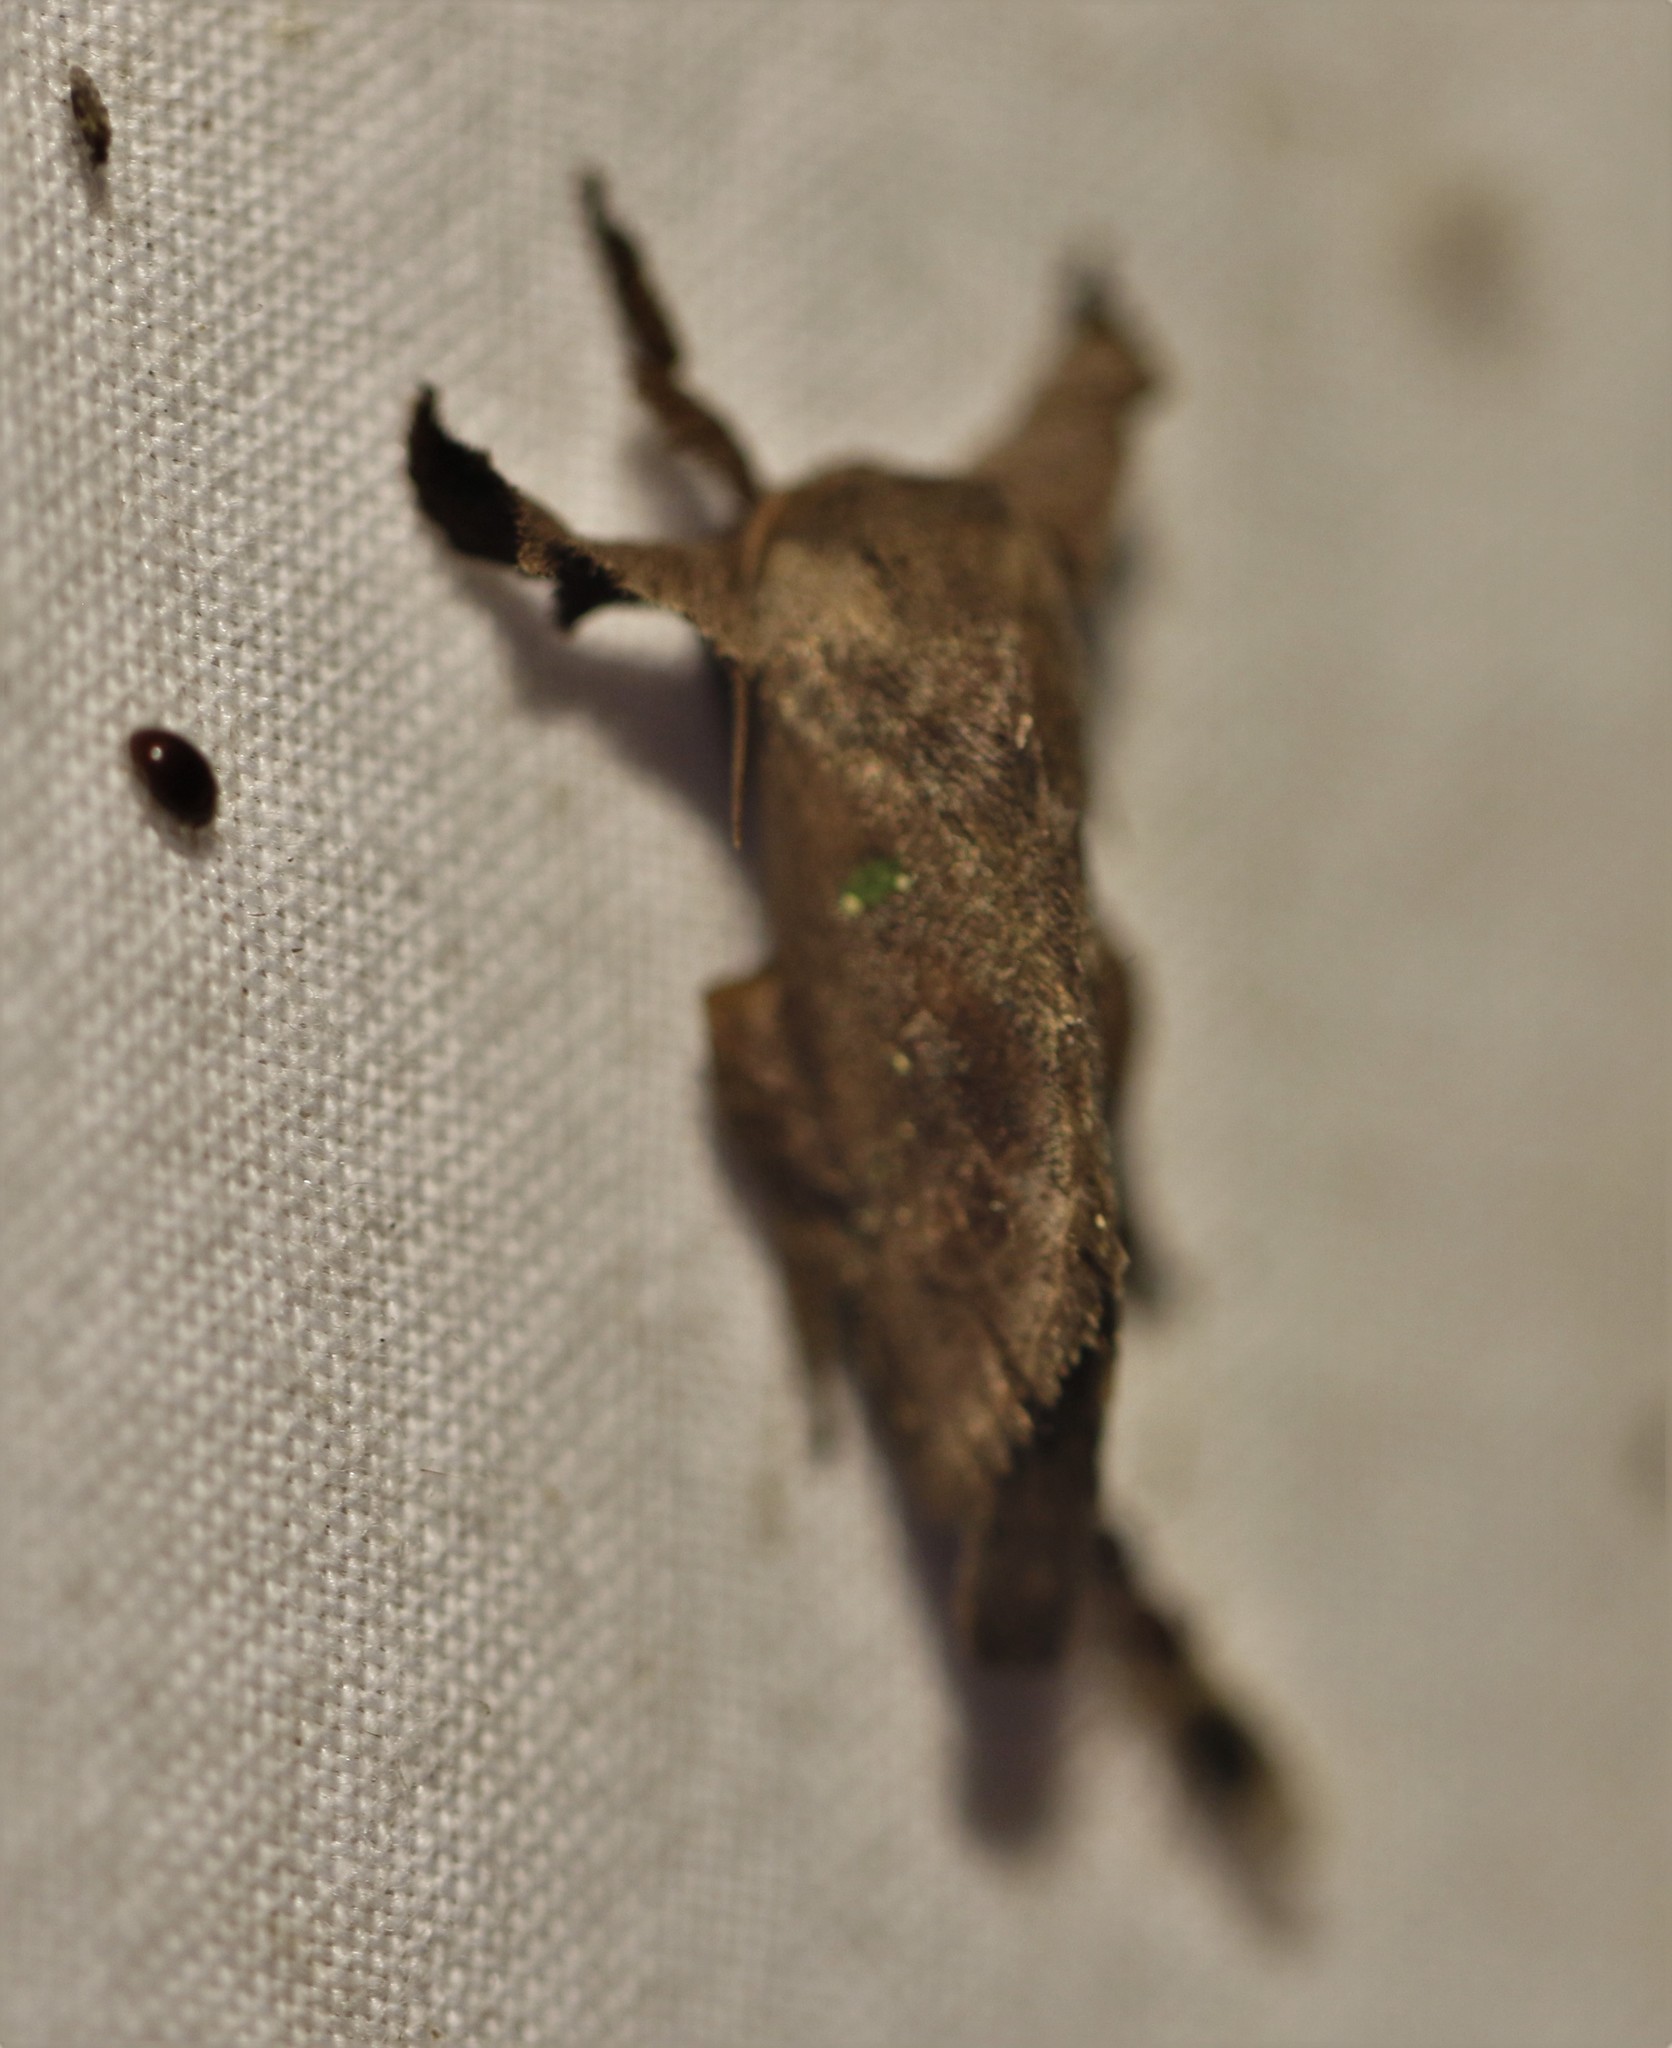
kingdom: Animalia
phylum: Arthropoda
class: Insecta
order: Lepidoptera
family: Limacodidae
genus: Euclea
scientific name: Euclea norba
